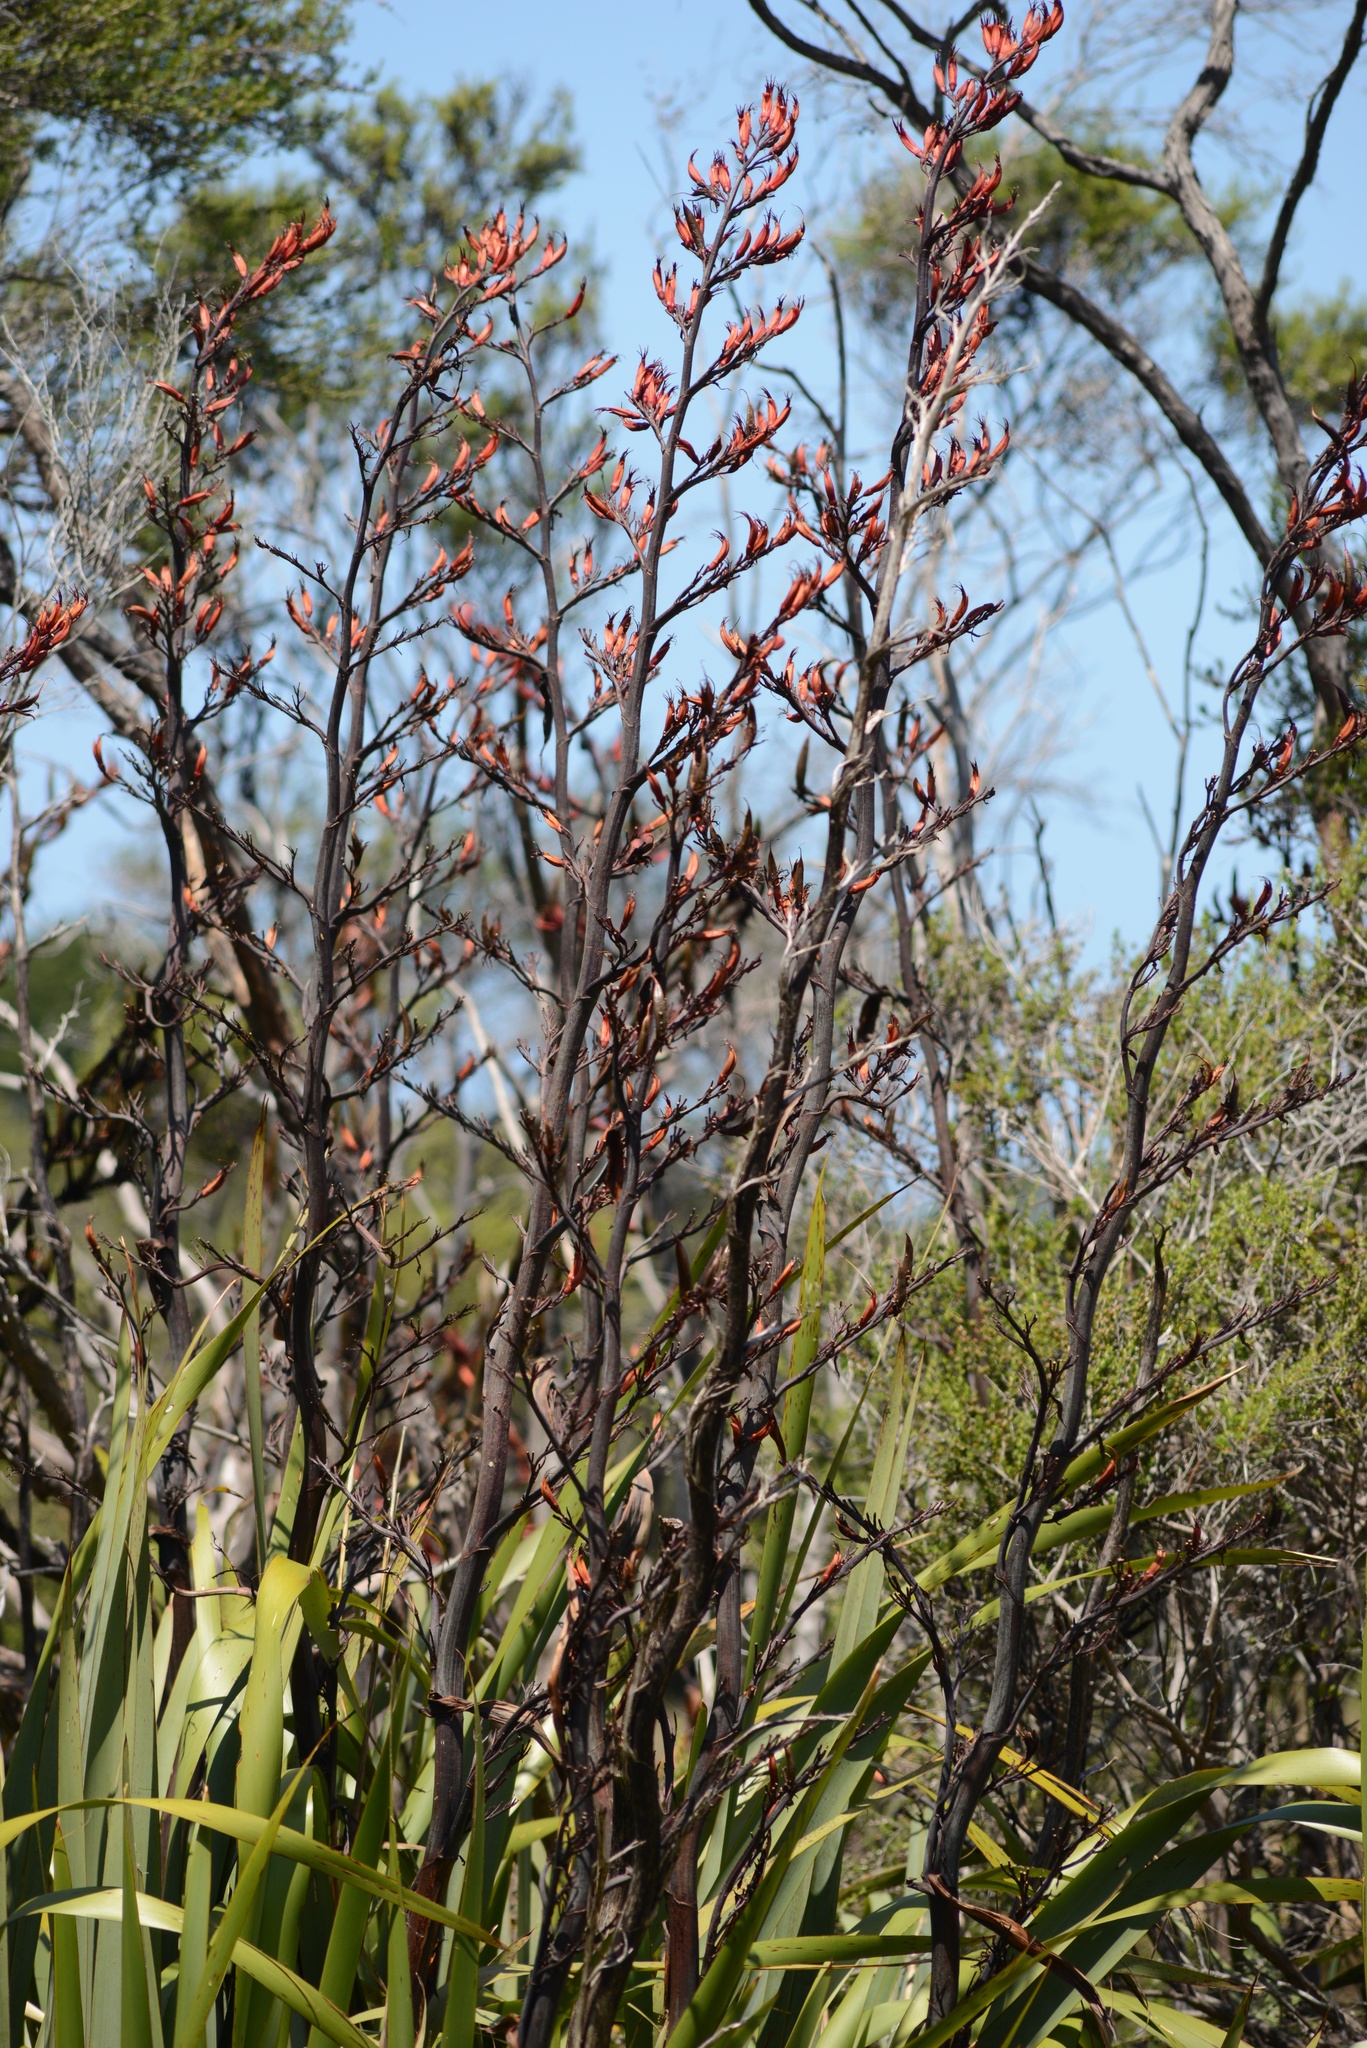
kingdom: Plantae
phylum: Tracheophyta
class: Liliopsida
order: Asparagales
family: Asphodelaceae
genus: Phormium
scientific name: Phormium tenax
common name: New zealand flax
